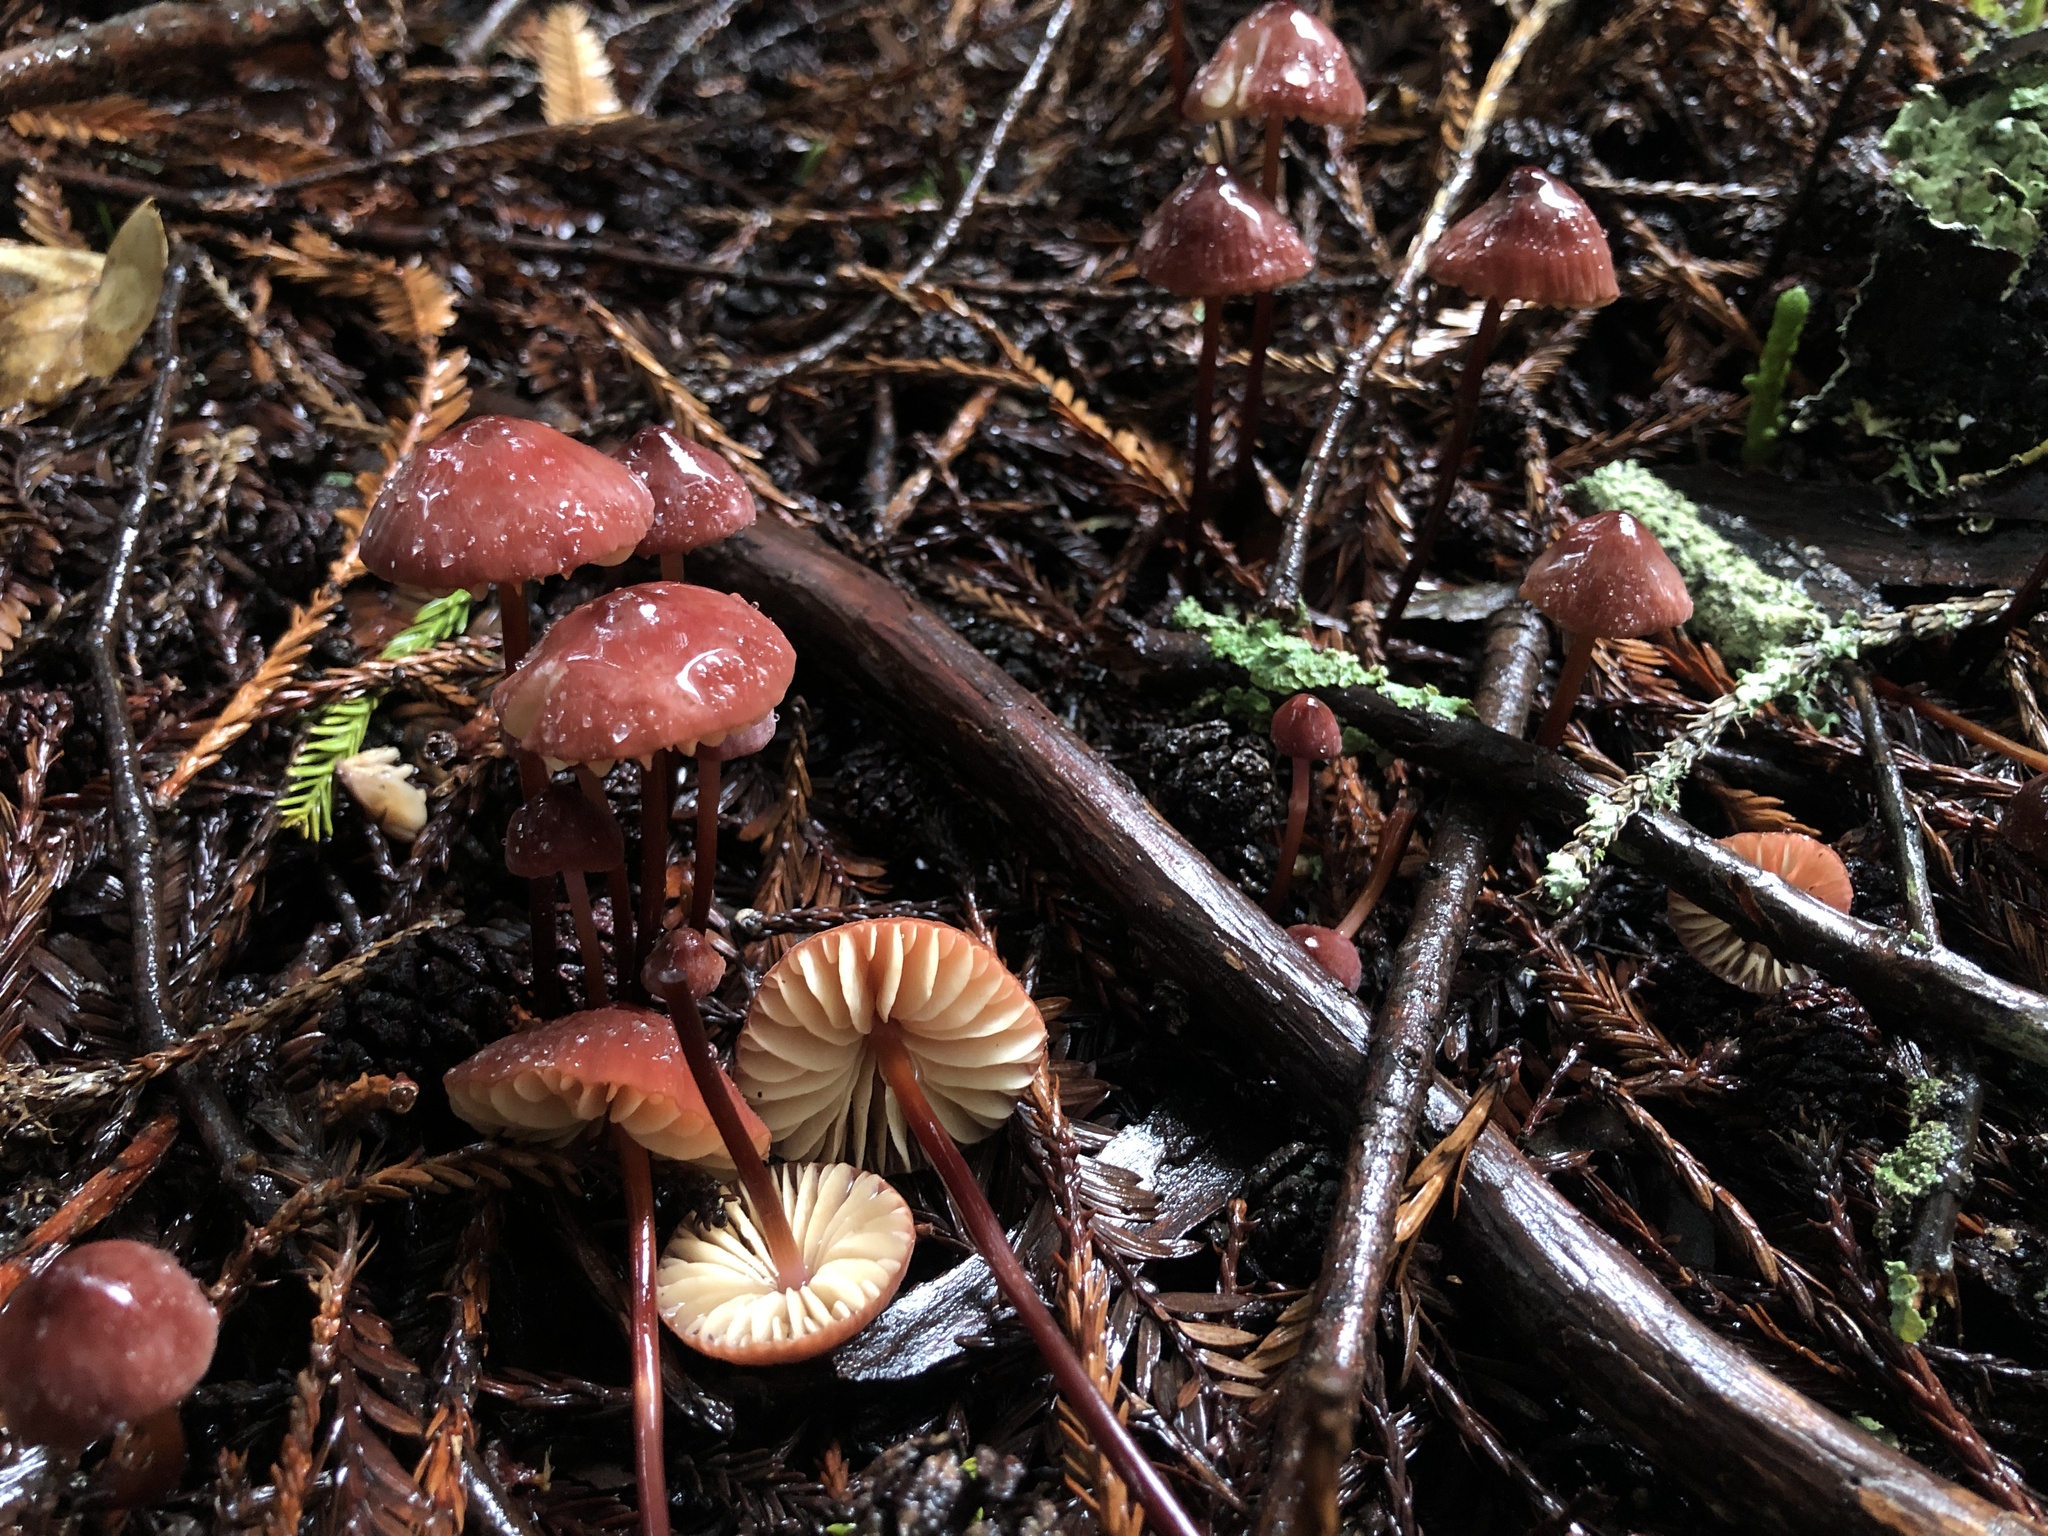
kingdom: Fungi
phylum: Basidiomycota
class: Agaricomycetes
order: Agaricales
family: Marasmiaceae
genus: Marasmius
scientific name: Marasmius plicatulus
